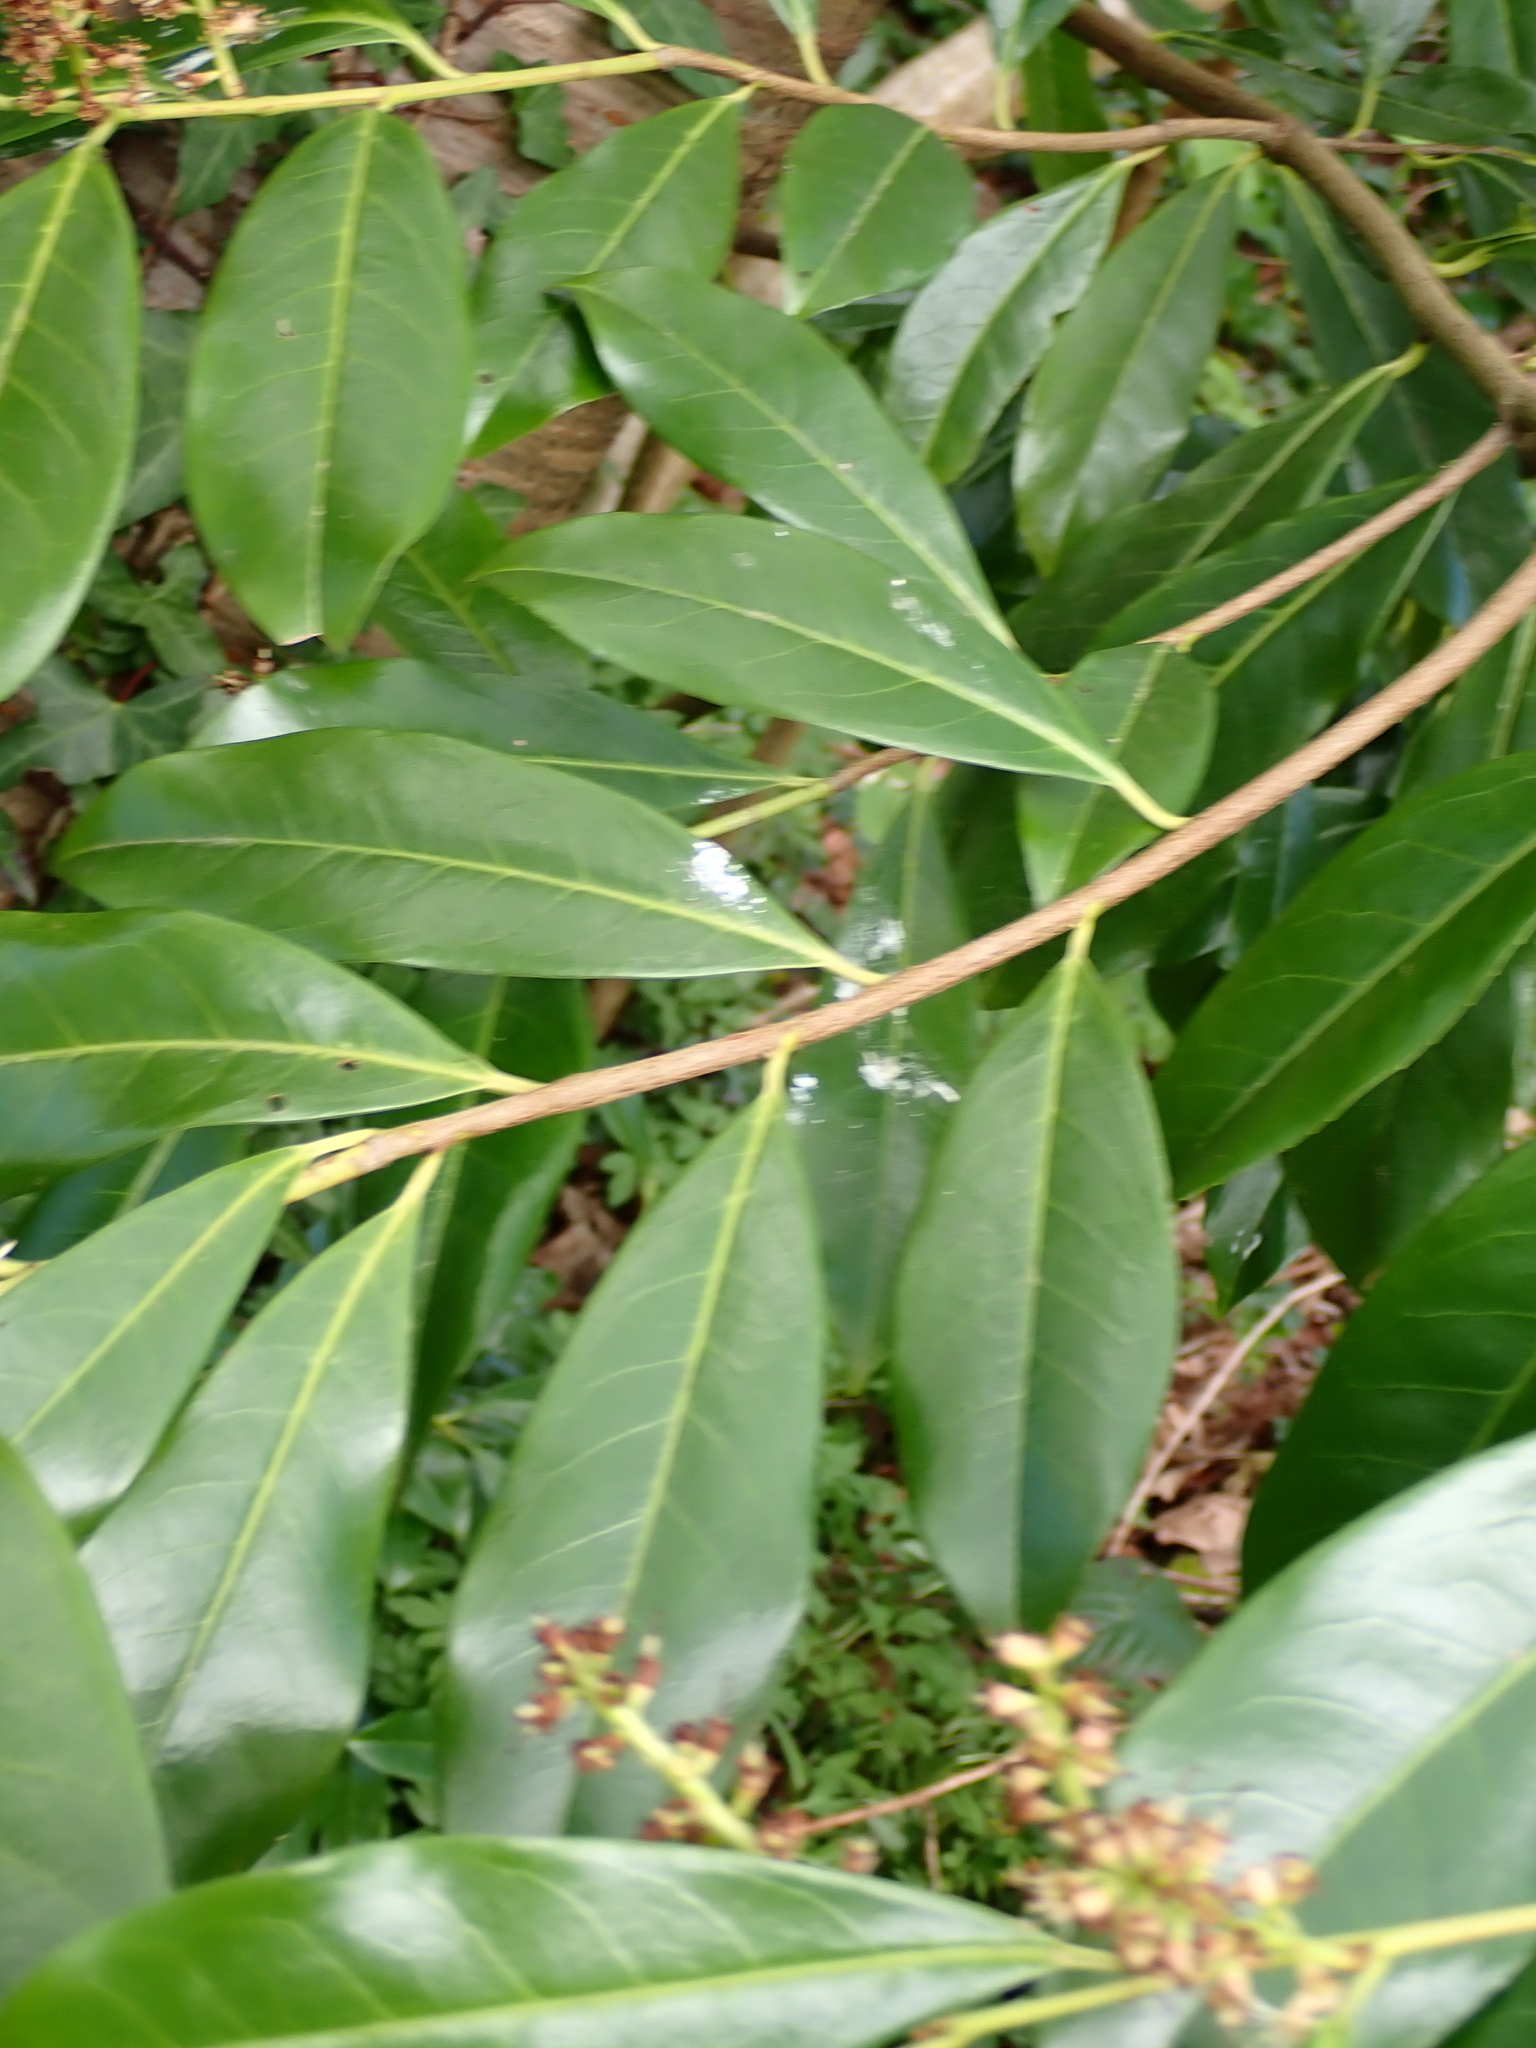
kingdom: Plantae
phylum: Tracheophyta
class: Magnoliopsida
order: Rosales
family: Rosaceae
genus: Prunus
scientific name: Prunus laurocerasus
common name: Cherry laurel
